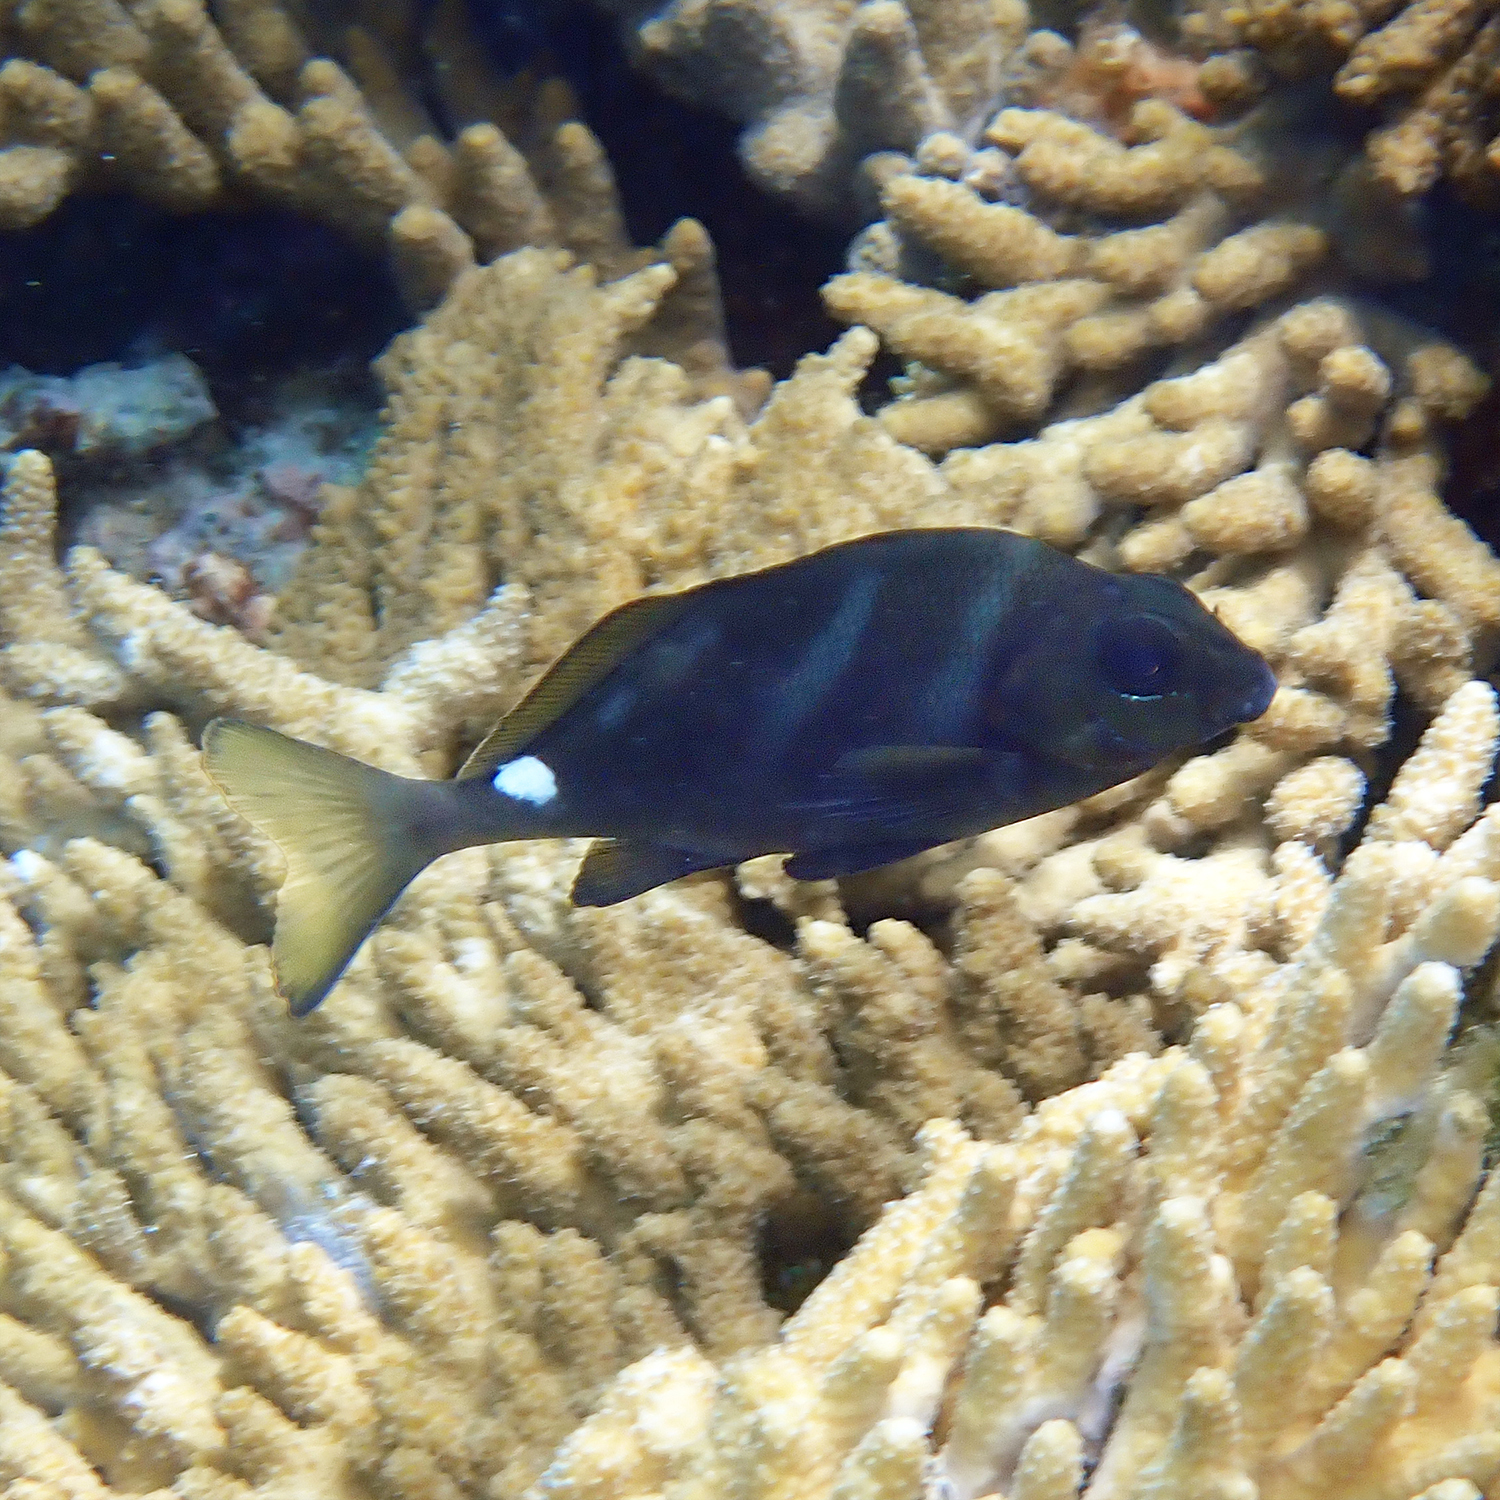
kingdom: Animalia
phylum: Chordata
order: Perciformes
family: Latridae
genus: Morwong
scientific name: Morwong ephippium
